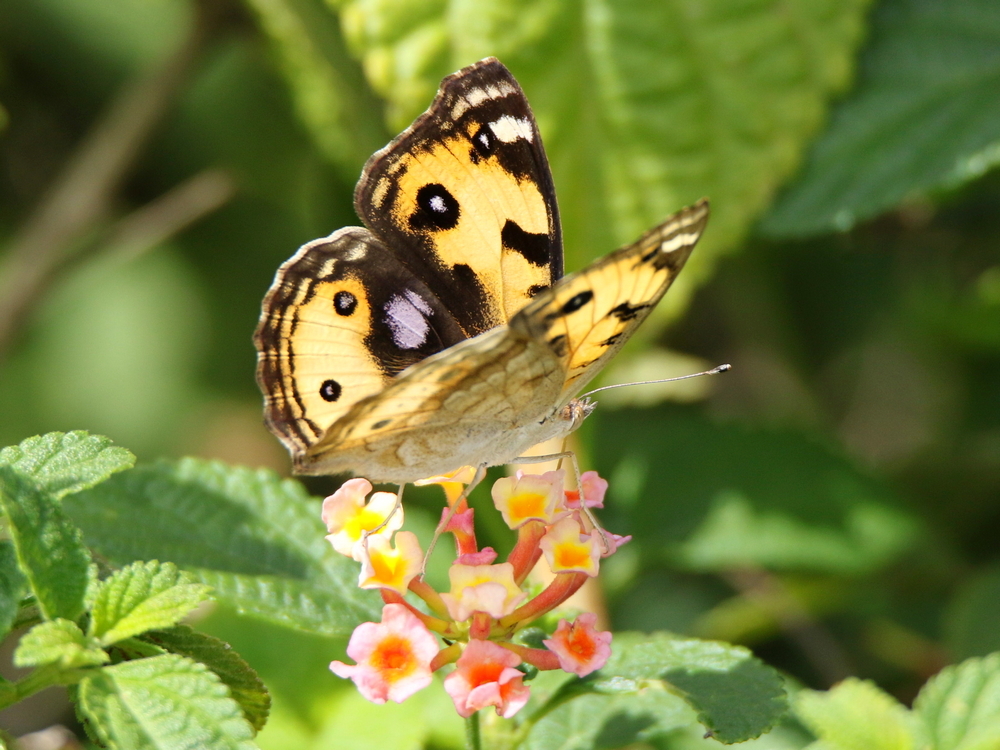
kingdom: Animalia
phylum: Arthropoda
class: Insecta
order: Lepidoptera
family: Nymphalidae
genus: Junonia
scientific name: Junonia hierta
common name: Yellow pansy
